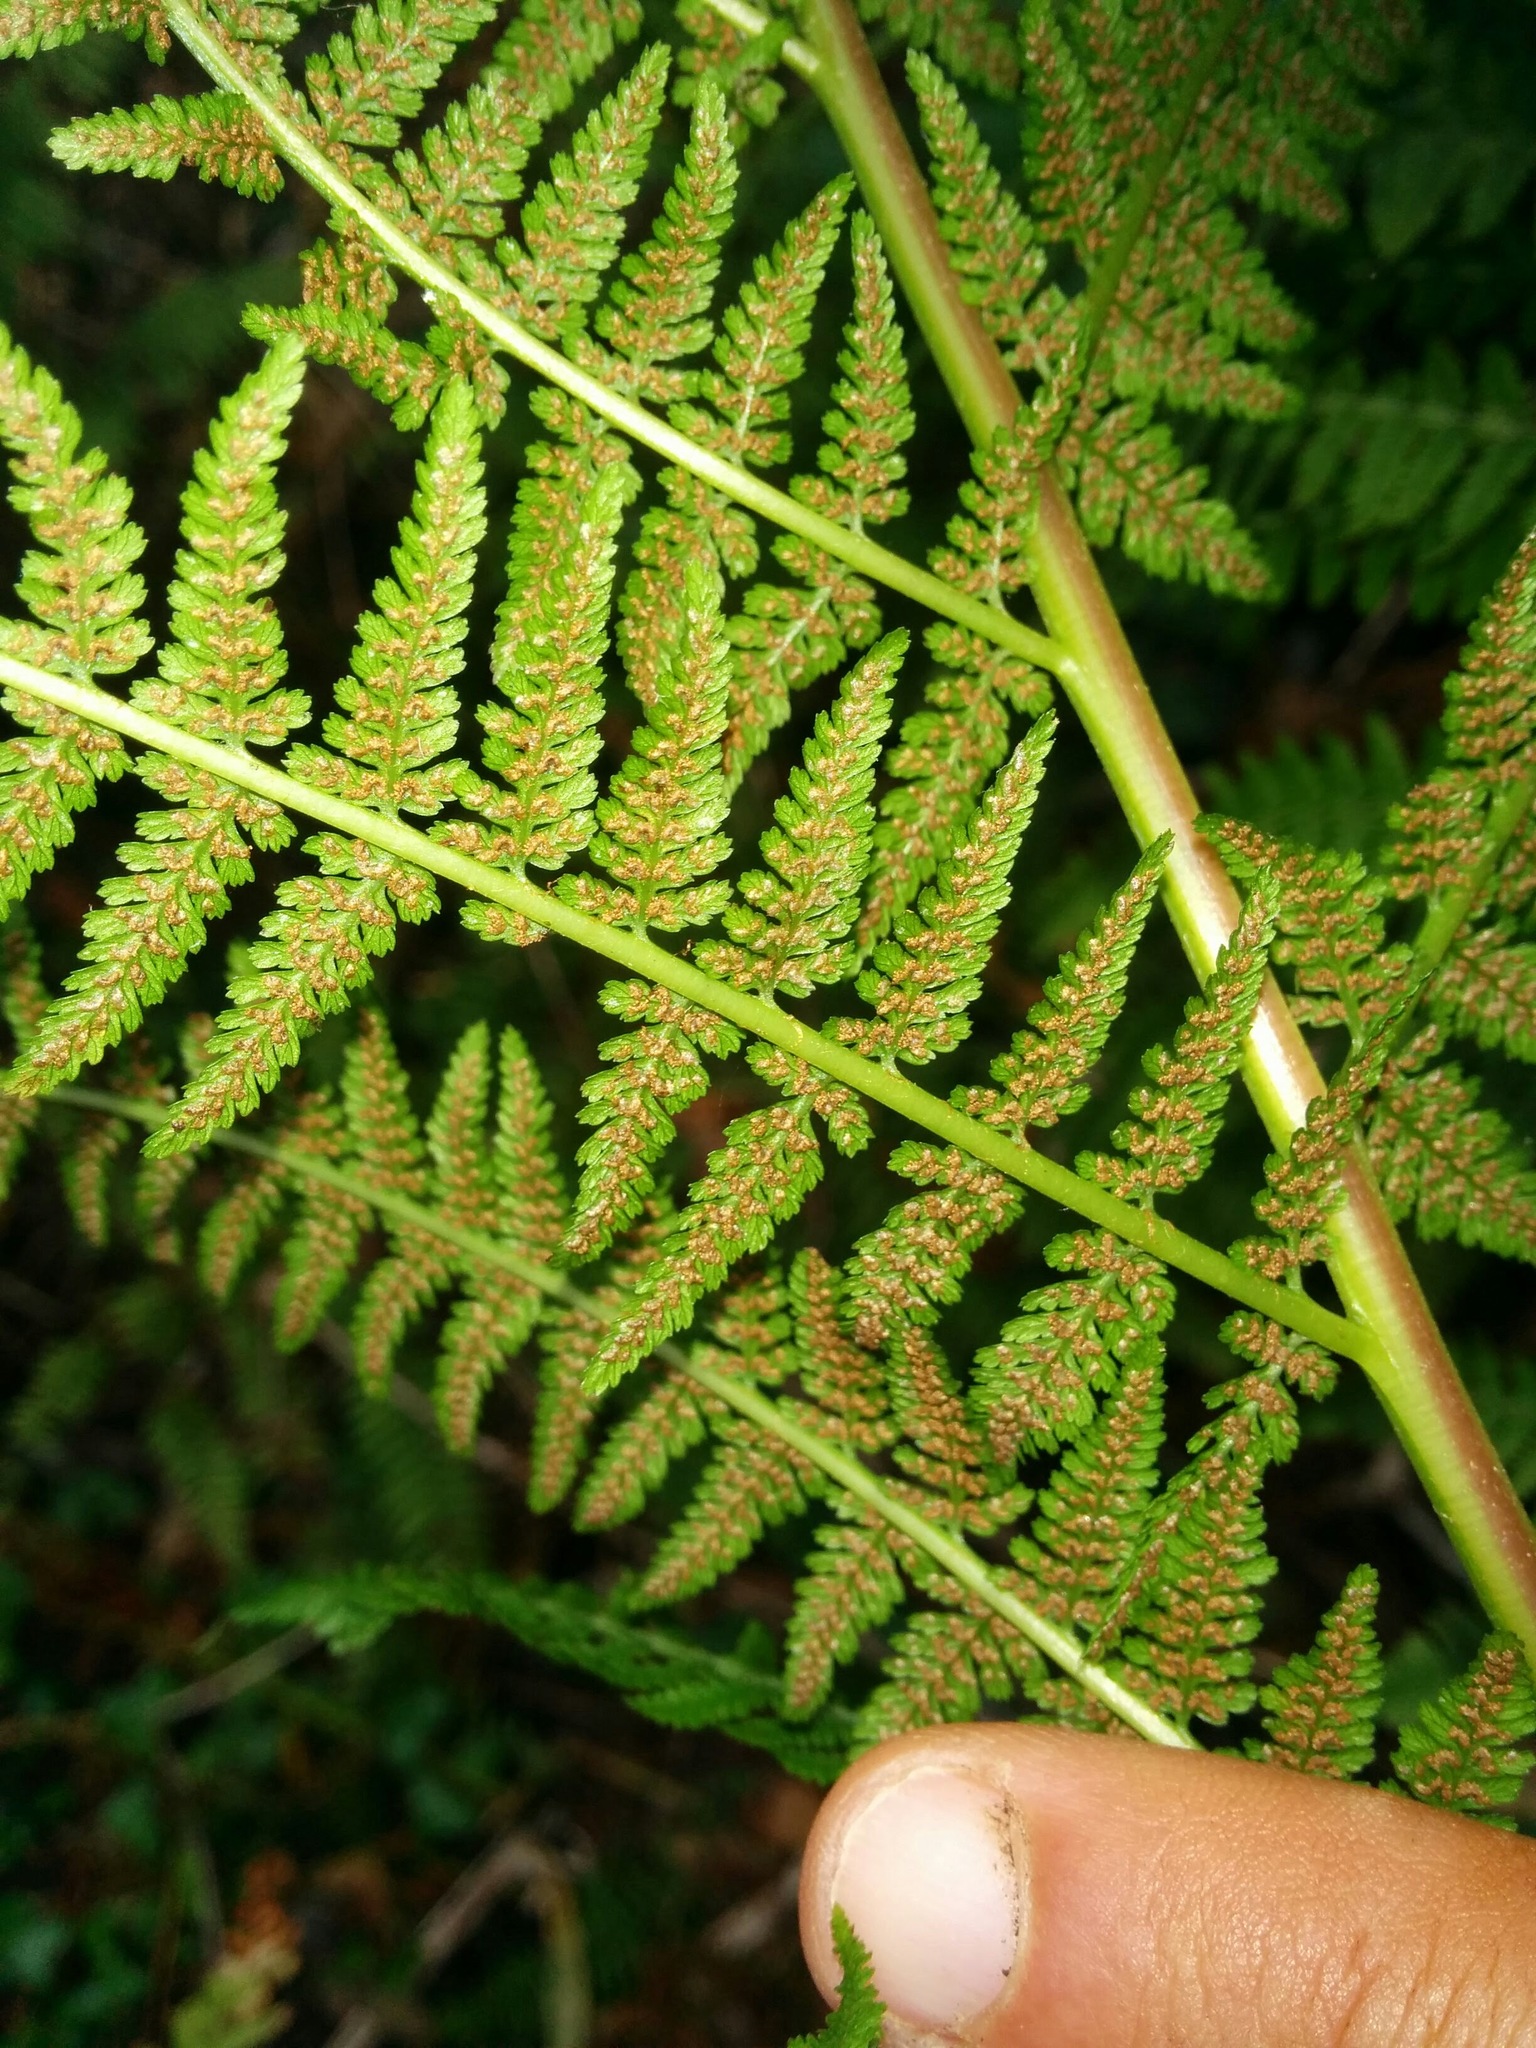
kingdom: Plantae
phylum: Tracheophyta
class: Polypodiopsida
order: Polypodiales
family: Athyriaceae
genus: Athyrium
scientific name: Athyrium filix-femina
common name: Lady fern
